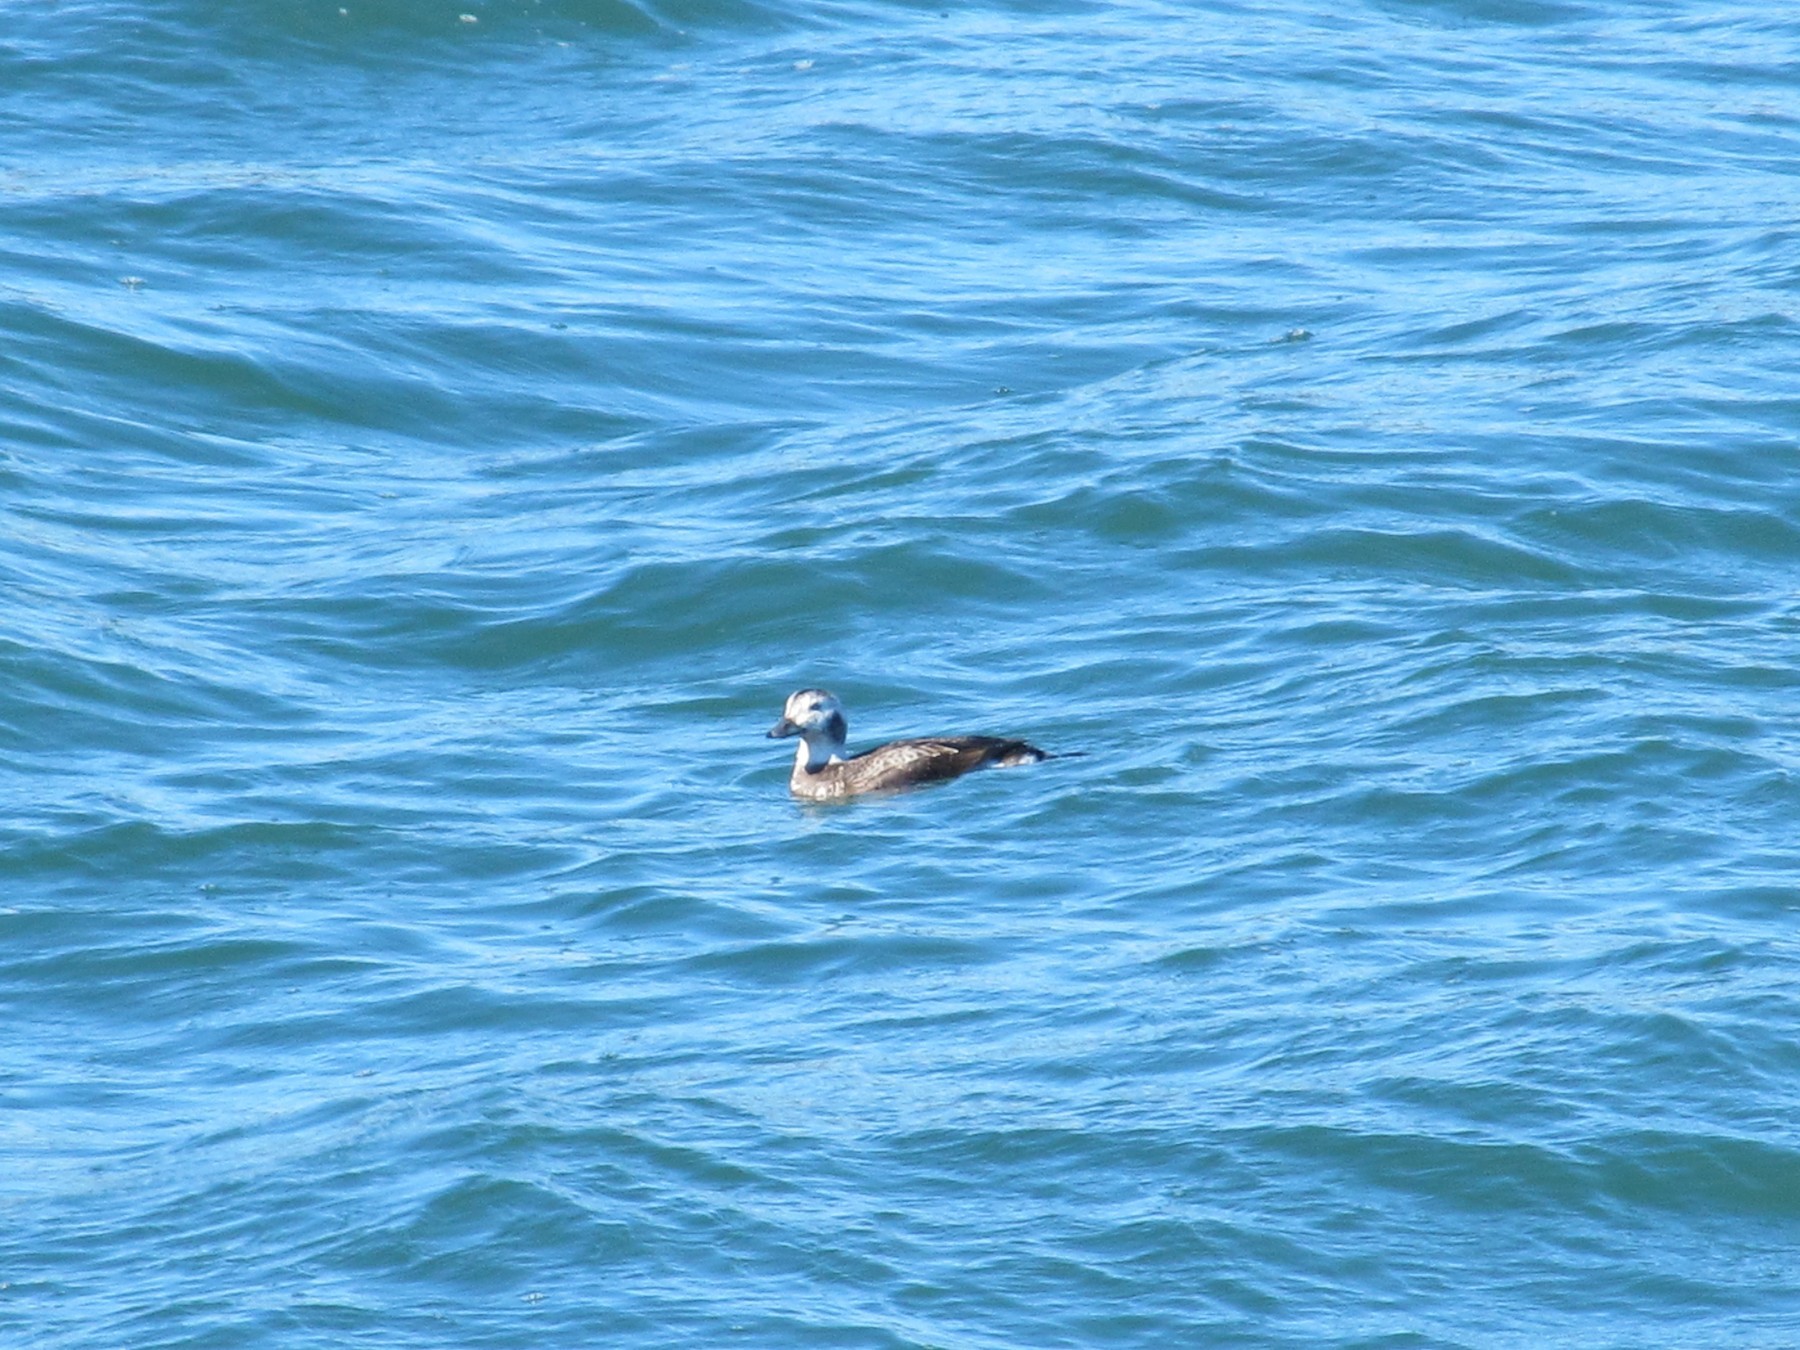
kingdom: Animalia
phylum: Chordata
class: Aves
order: Anseriformes
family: Anatidae
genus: Clangula
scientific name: Clangula hyemalis
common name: Long-tailed duck
